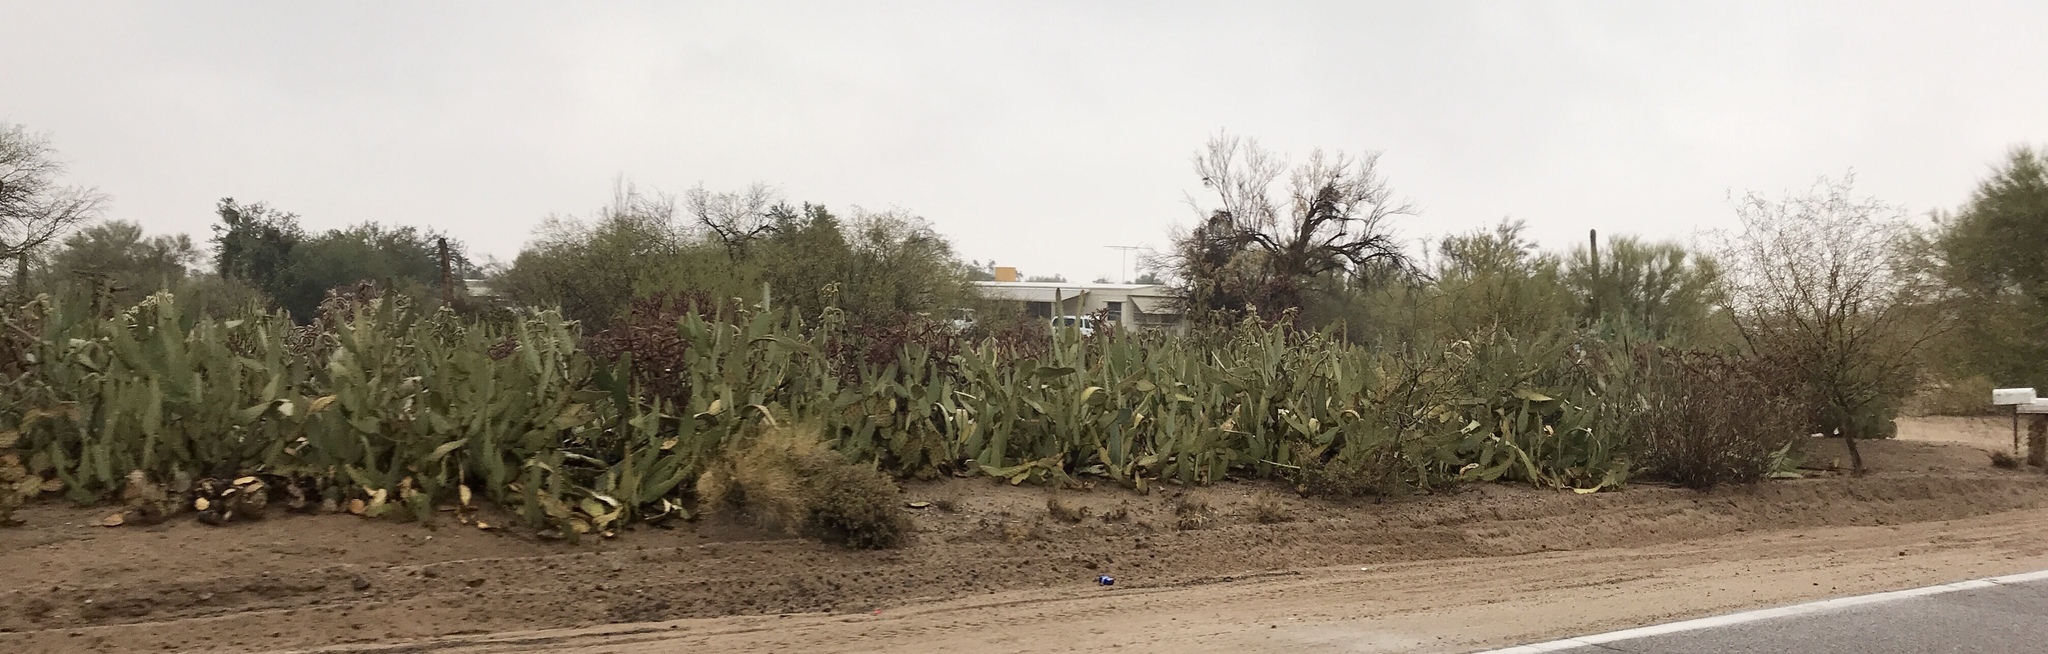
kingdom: Plantae
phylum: Tracheophyta
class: Magnoliopsida
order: Caryophyllales
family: Cactaceae
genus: Opuntia
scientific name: Opuntia engelmannii
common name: Cactus-apple
